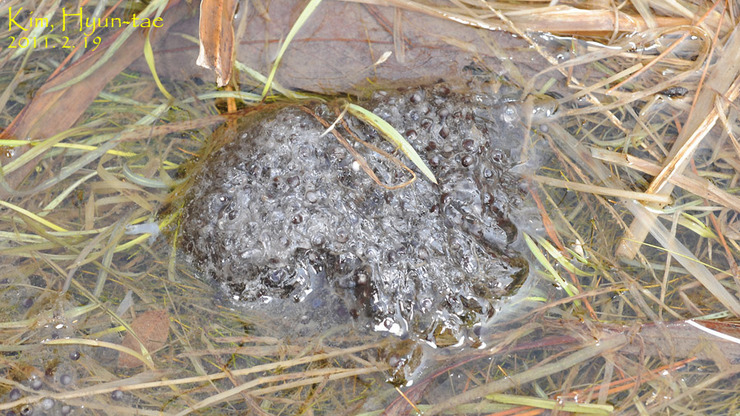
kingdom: Animalia
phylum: Chordata
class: Amphibia
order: Anura
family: Ranidae
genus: Rana
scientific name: Rana uenoi
